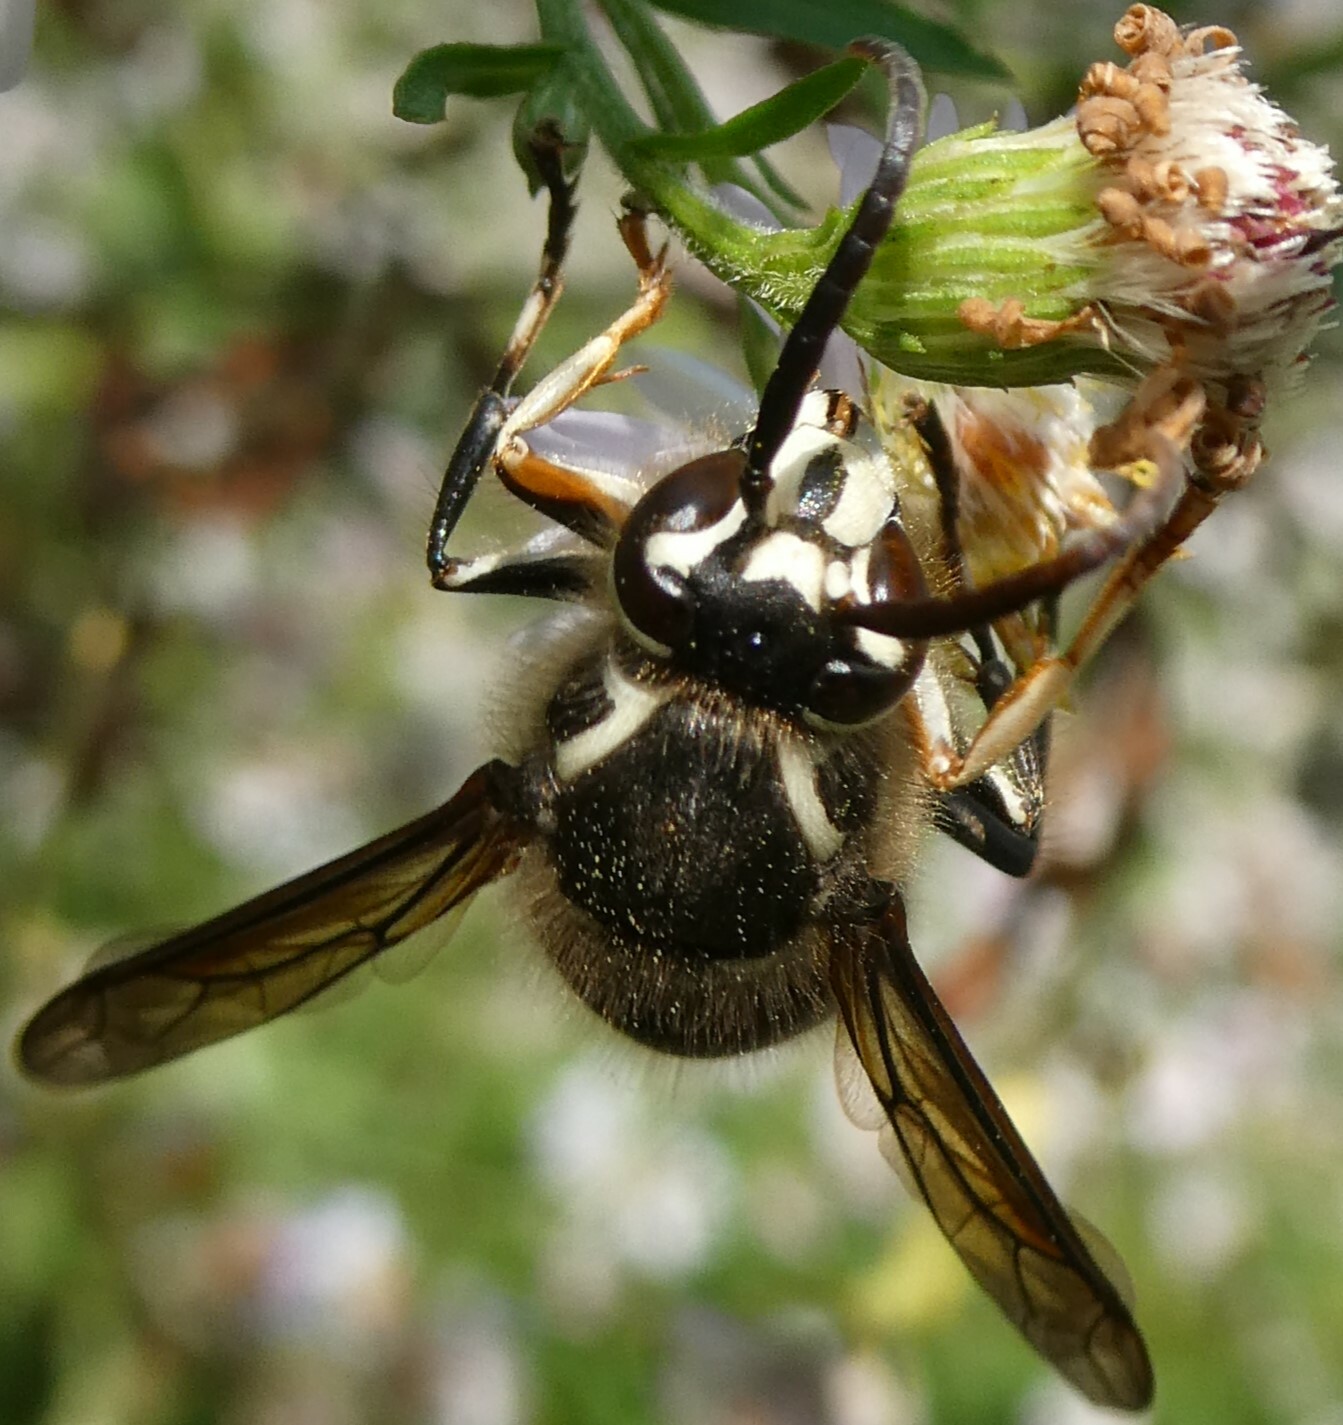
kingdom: Animalia
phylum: Arthropoda
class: Insecta
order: Hymenoptera
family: Vespidae
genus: Dolichovespula
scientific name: Dolichovespula maculata
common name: Bald-faced hornet
